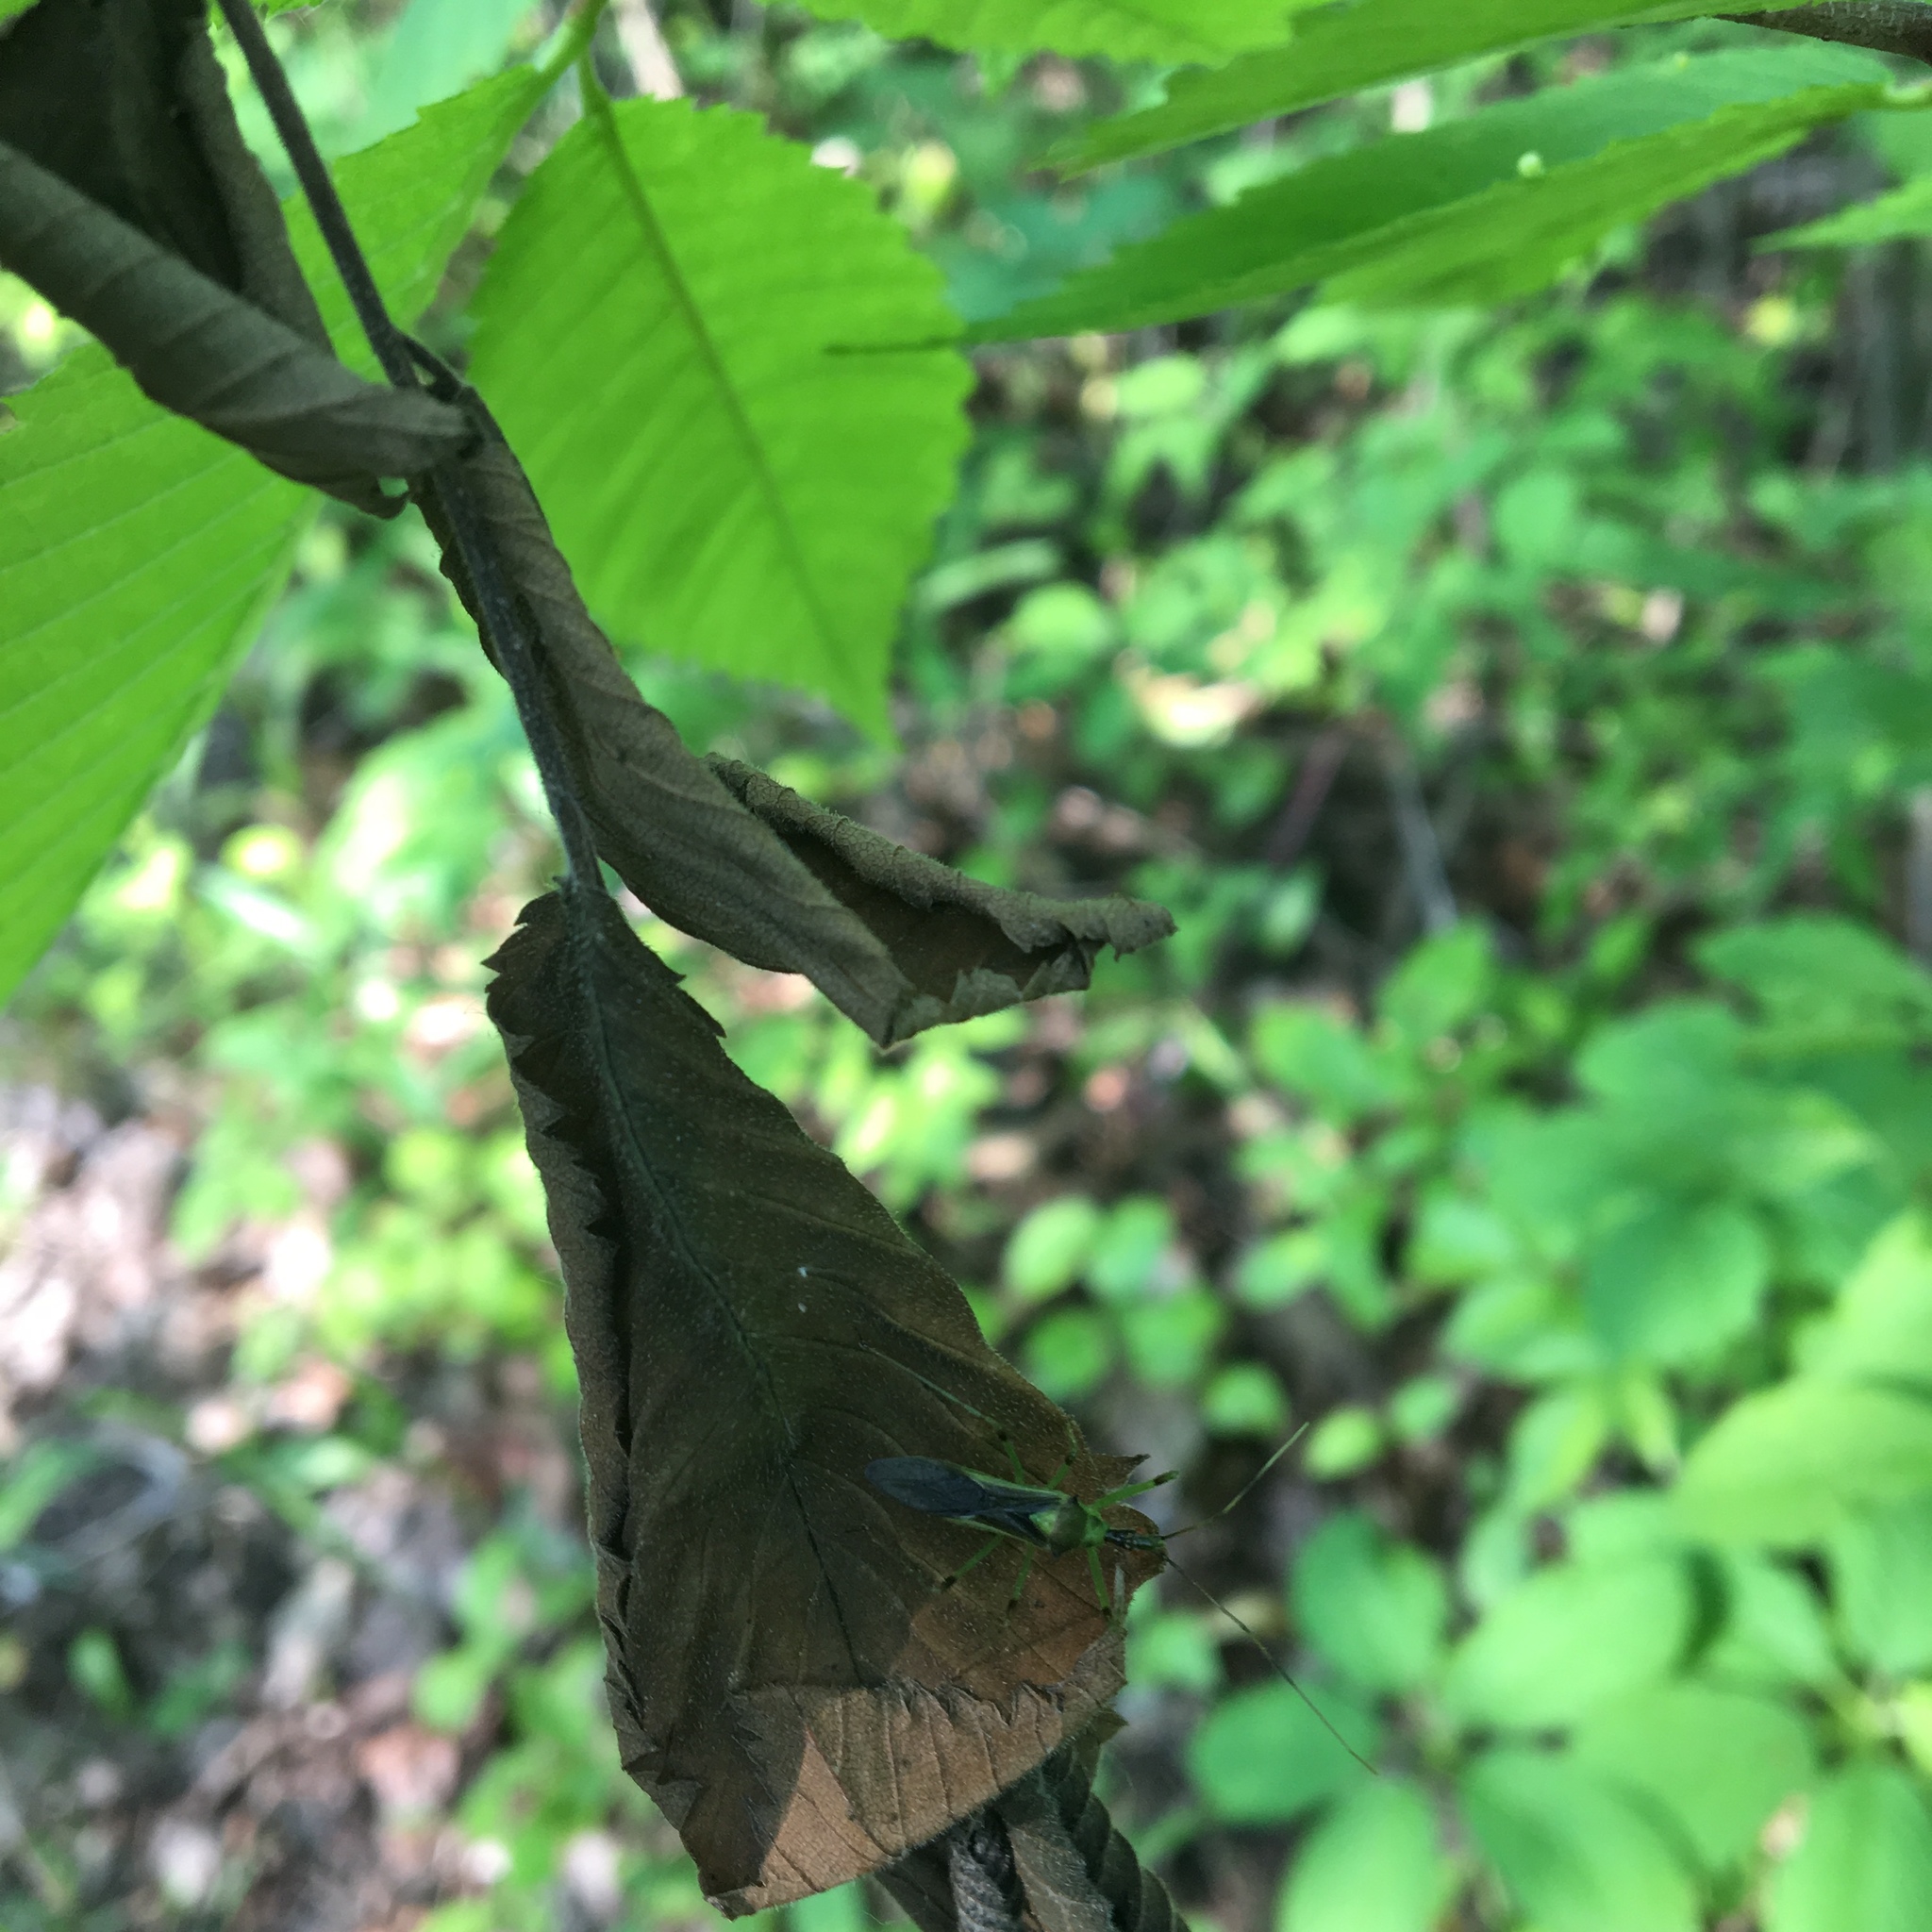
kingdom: Animalia
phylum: Arthropoda
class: Insecta
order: Hemiptera
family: Reduviidae
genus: Zelus
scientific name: Zelus luridus
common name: Pale green assassin bug
